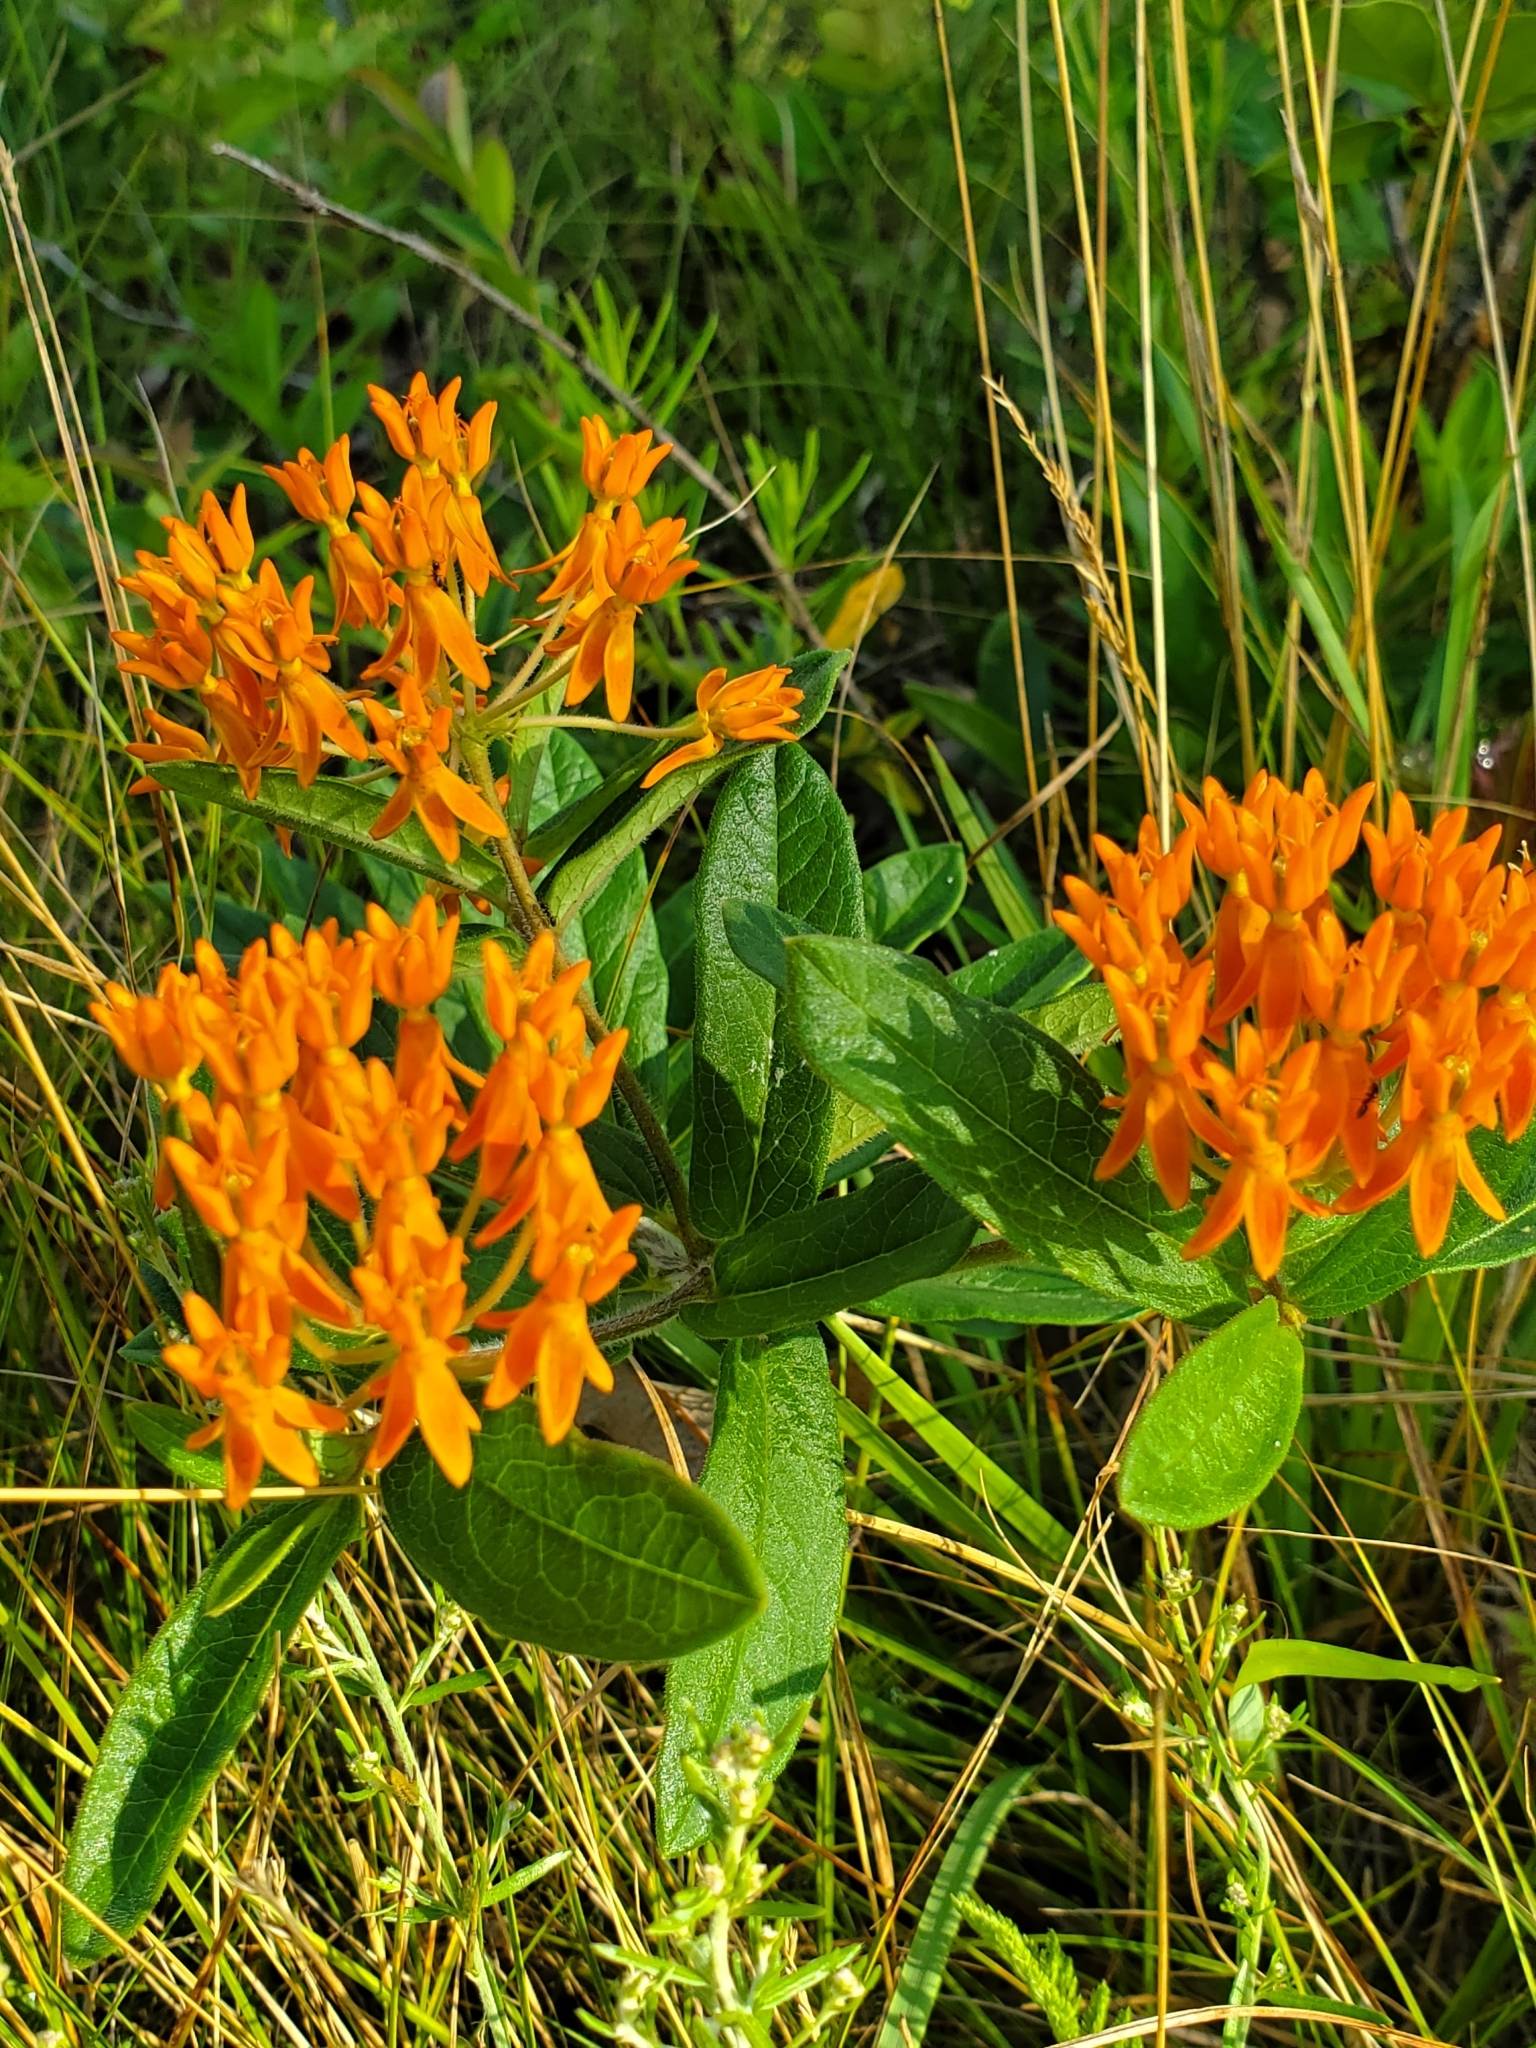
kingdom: Plantae
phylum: Tracheophyta
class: Magnoliopsida
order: Gentianales
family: Apocynaceae
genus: Asclepias
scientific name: Asclepias tuberosa
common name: Butterfly milkweed
